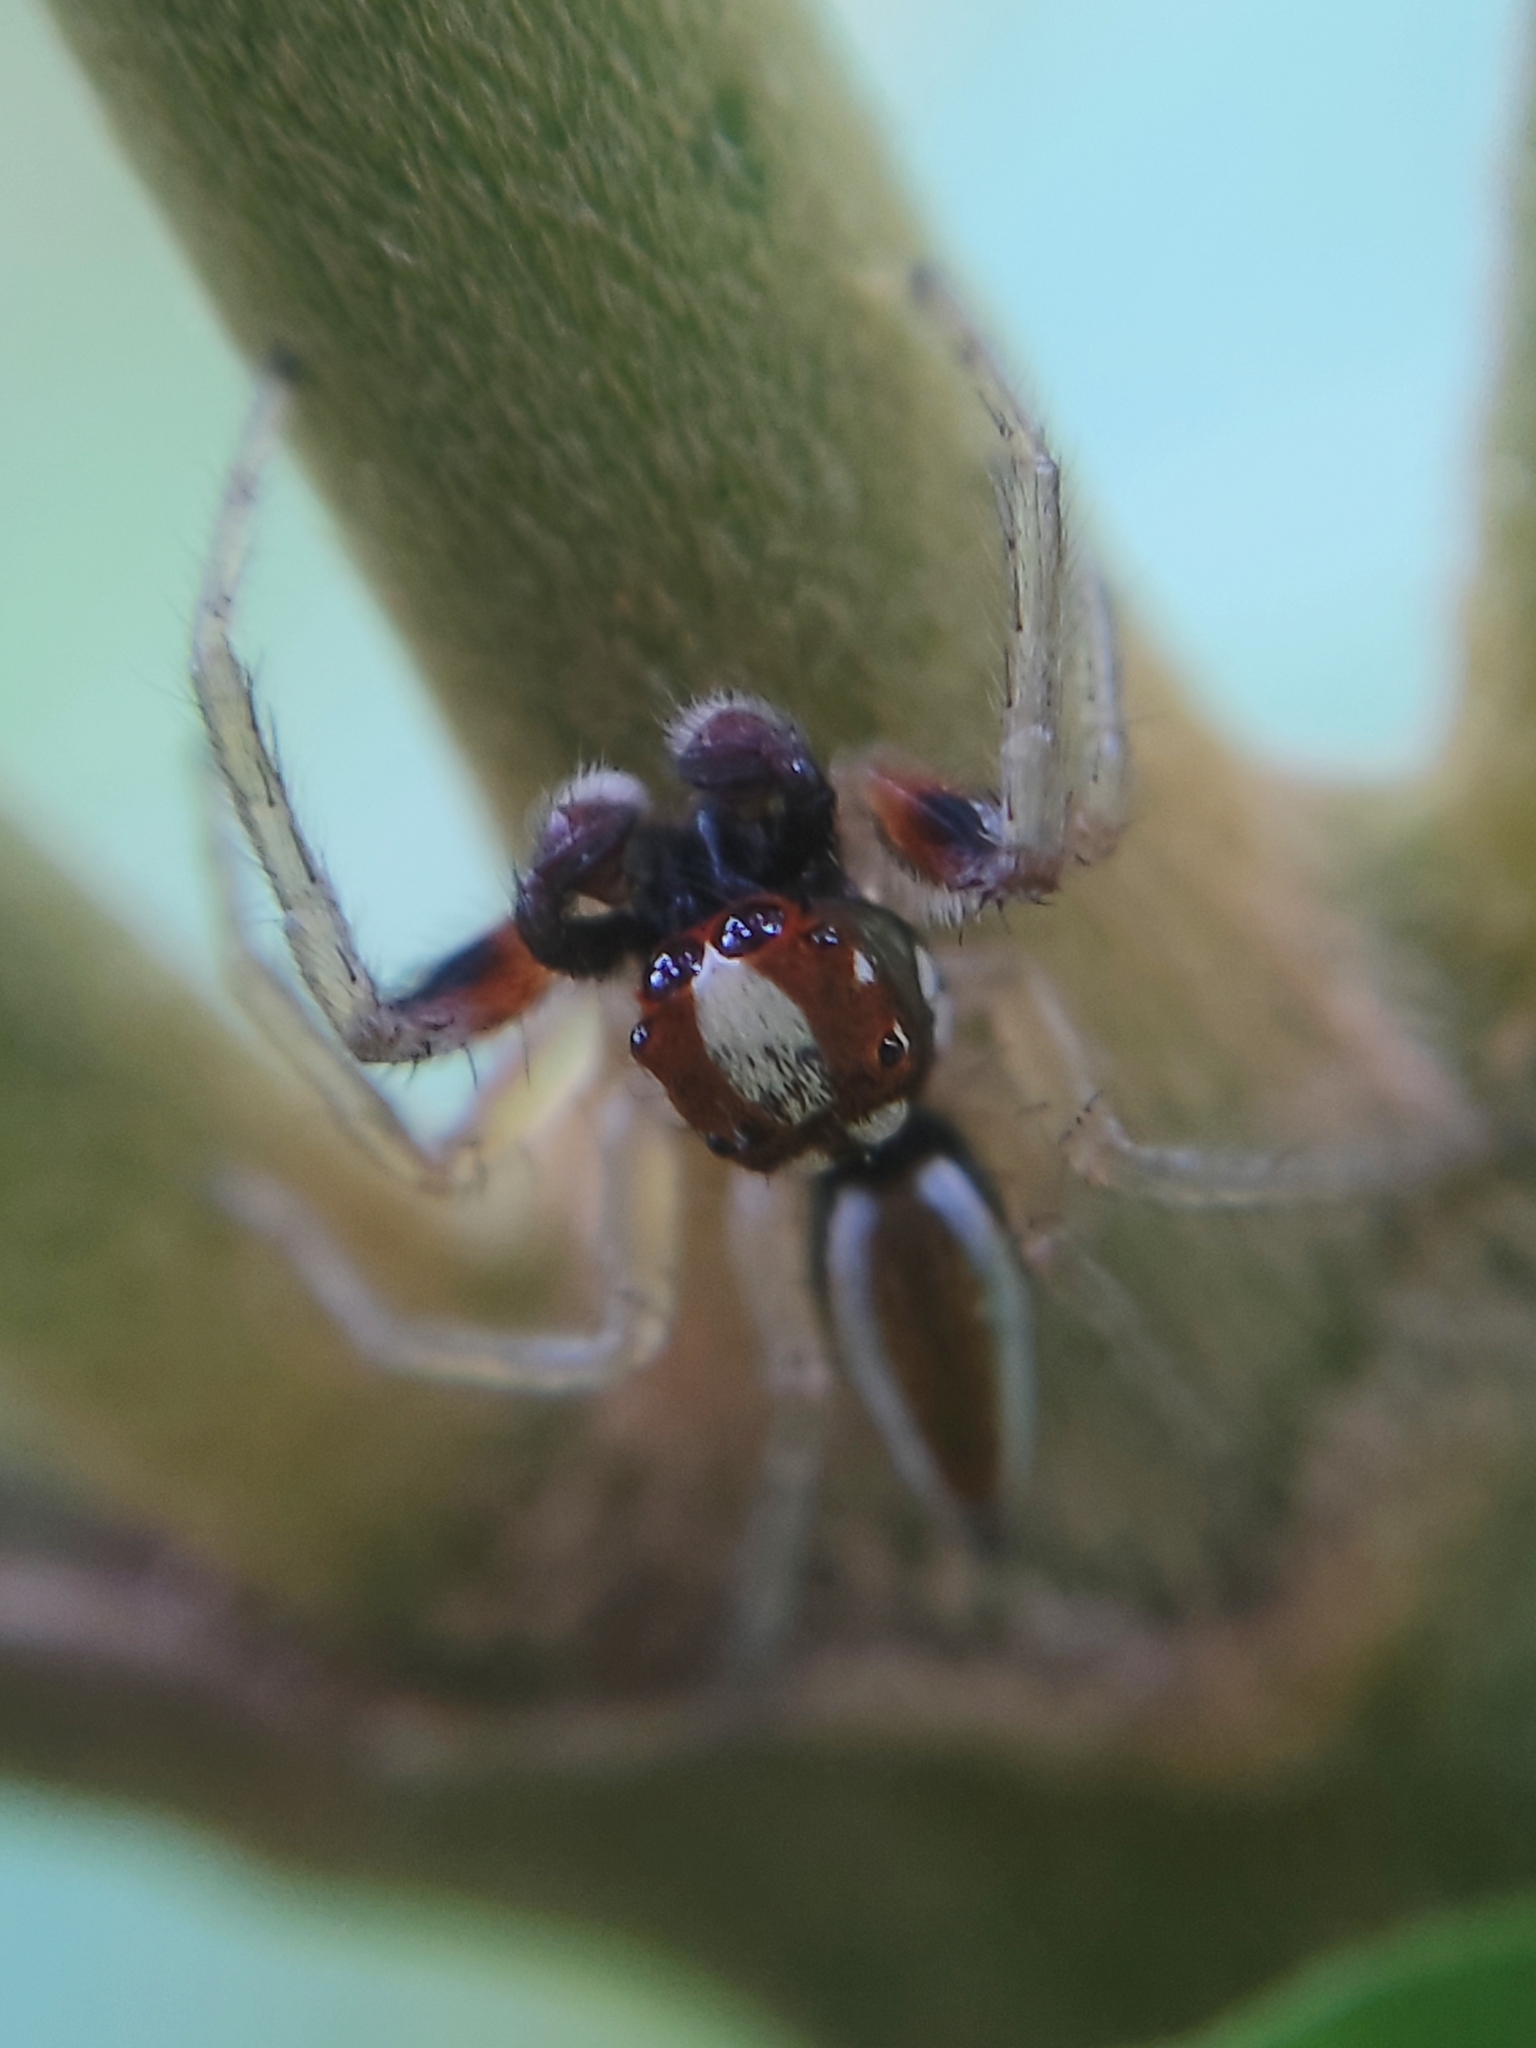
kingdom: Animalia
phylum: Arthropoda
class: Arachnida
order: Araneae
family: Salticidae
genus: Chira
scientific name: Chira spinosa
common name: Jumping spiders
